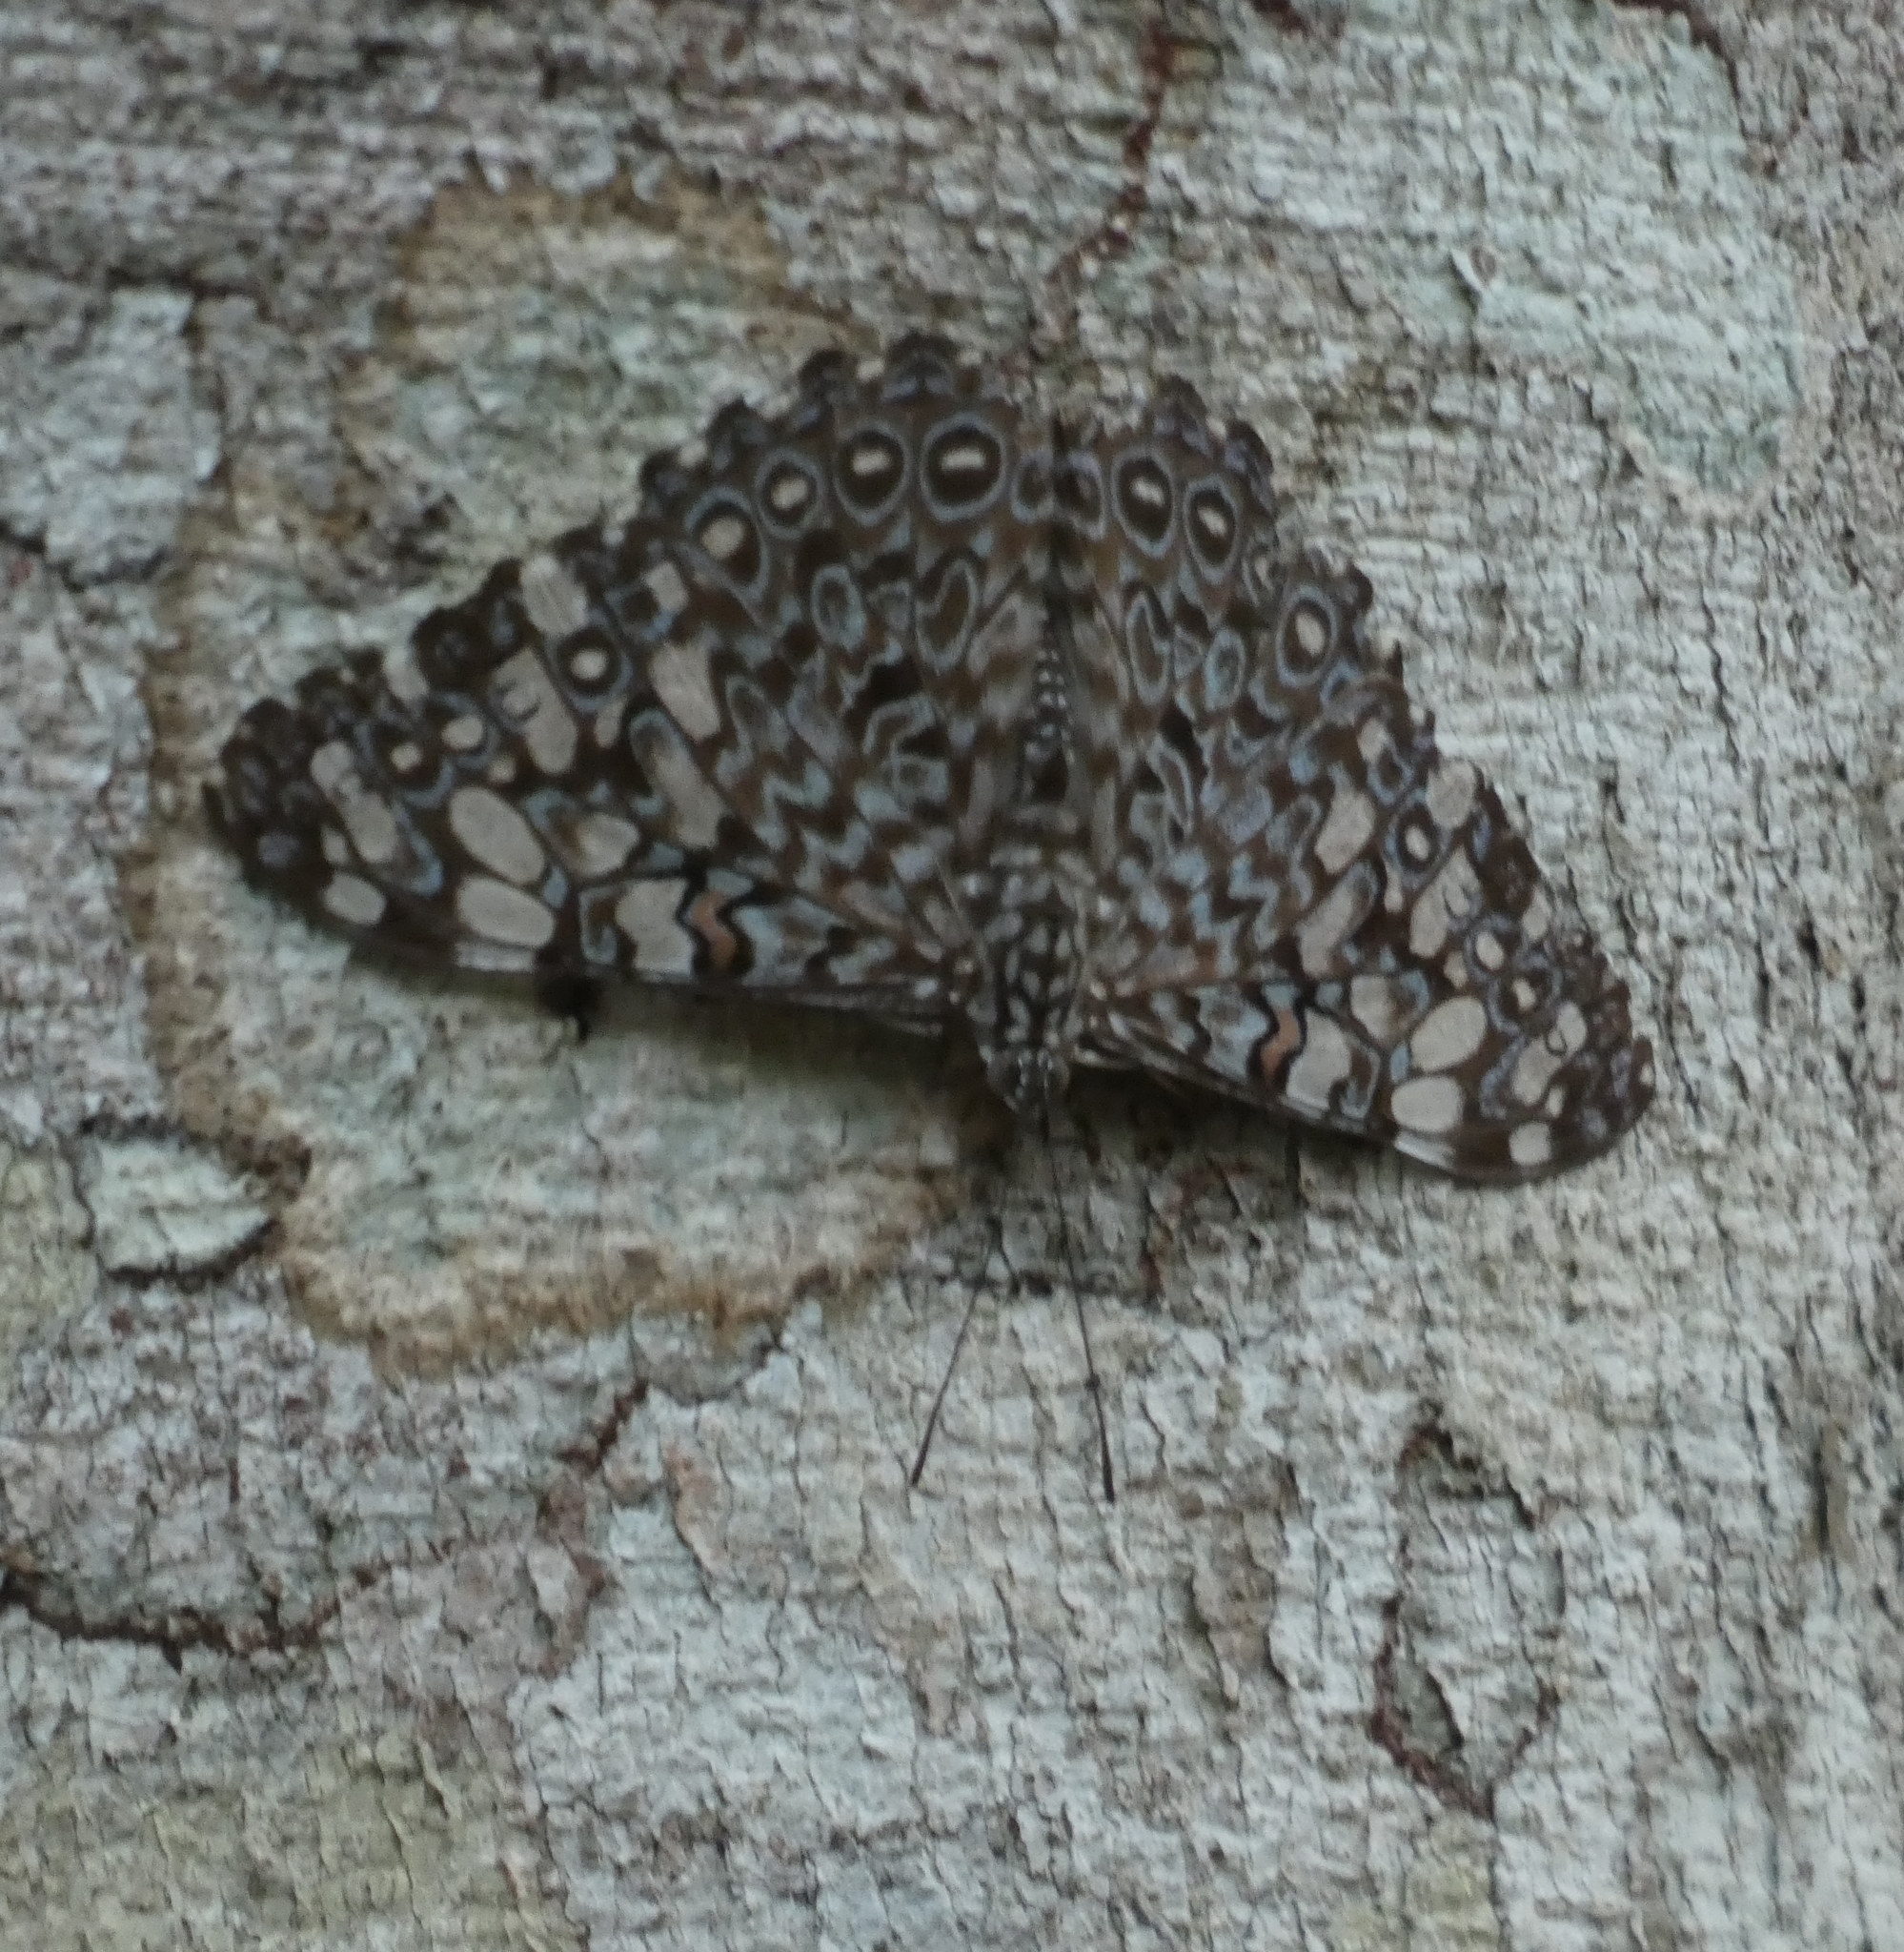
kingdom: Animalia
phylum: Arthropoda
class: Insecta
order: Lepidoptera
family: Nymphalidae
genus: Hamadryas
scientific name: Hamadryas feronia
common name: Variable cracker
